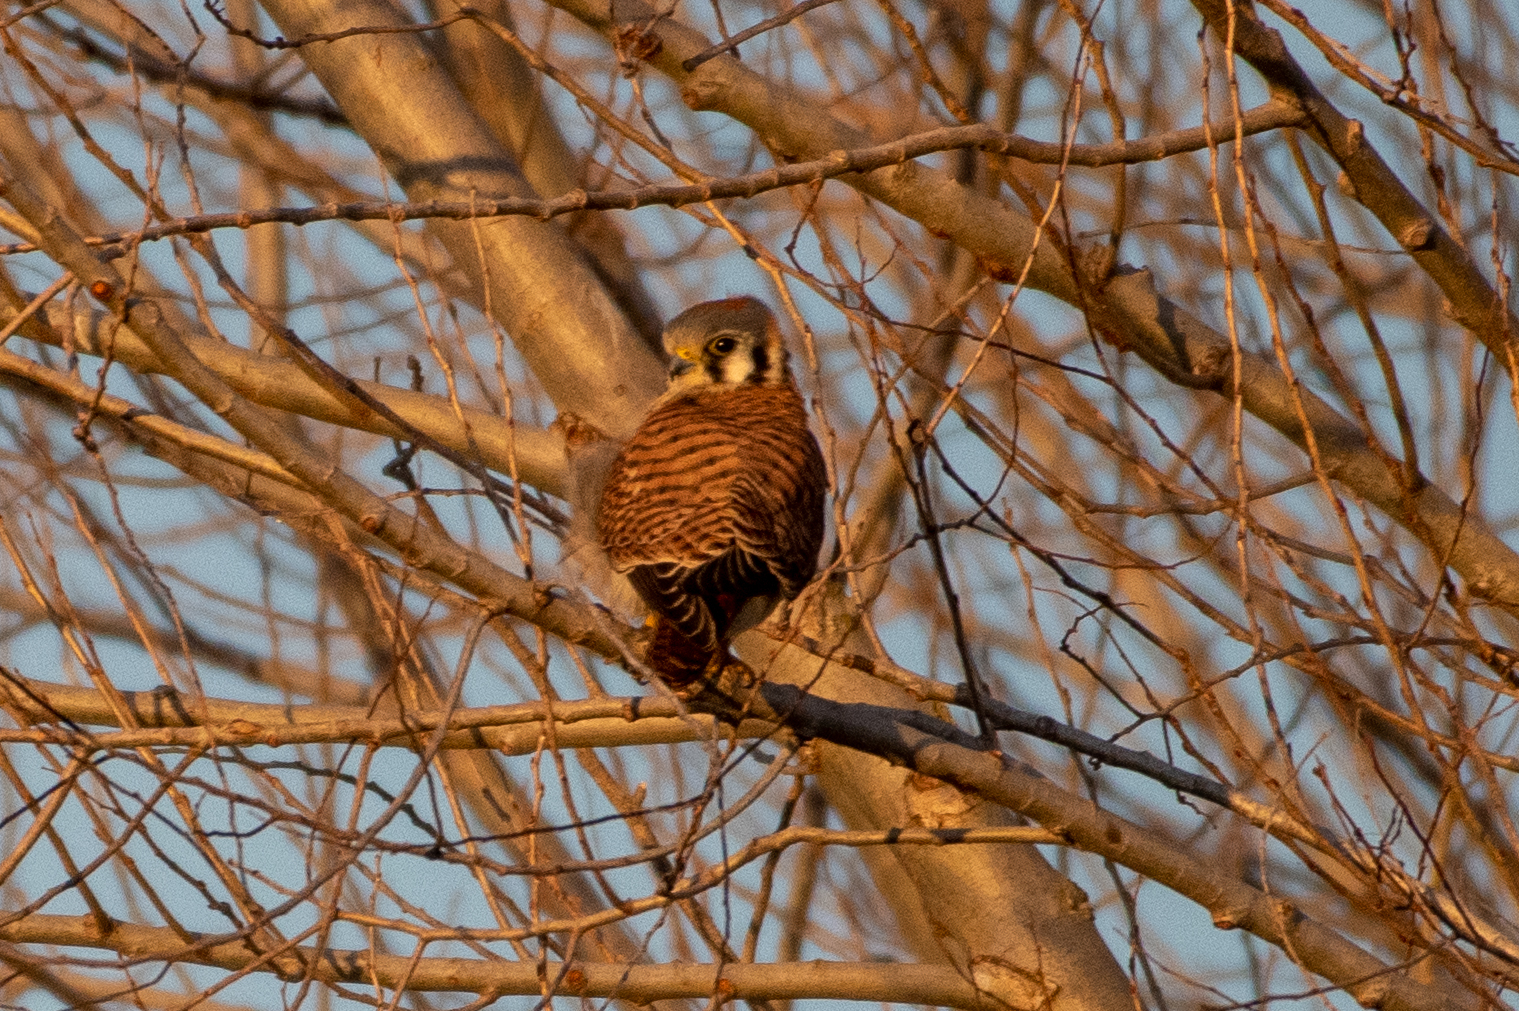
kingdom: Animalia
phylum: Chordata
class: Aves
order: Falconiformes
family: Falconidae
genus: Falco
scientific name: Falco sparverius
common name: American kestrel
